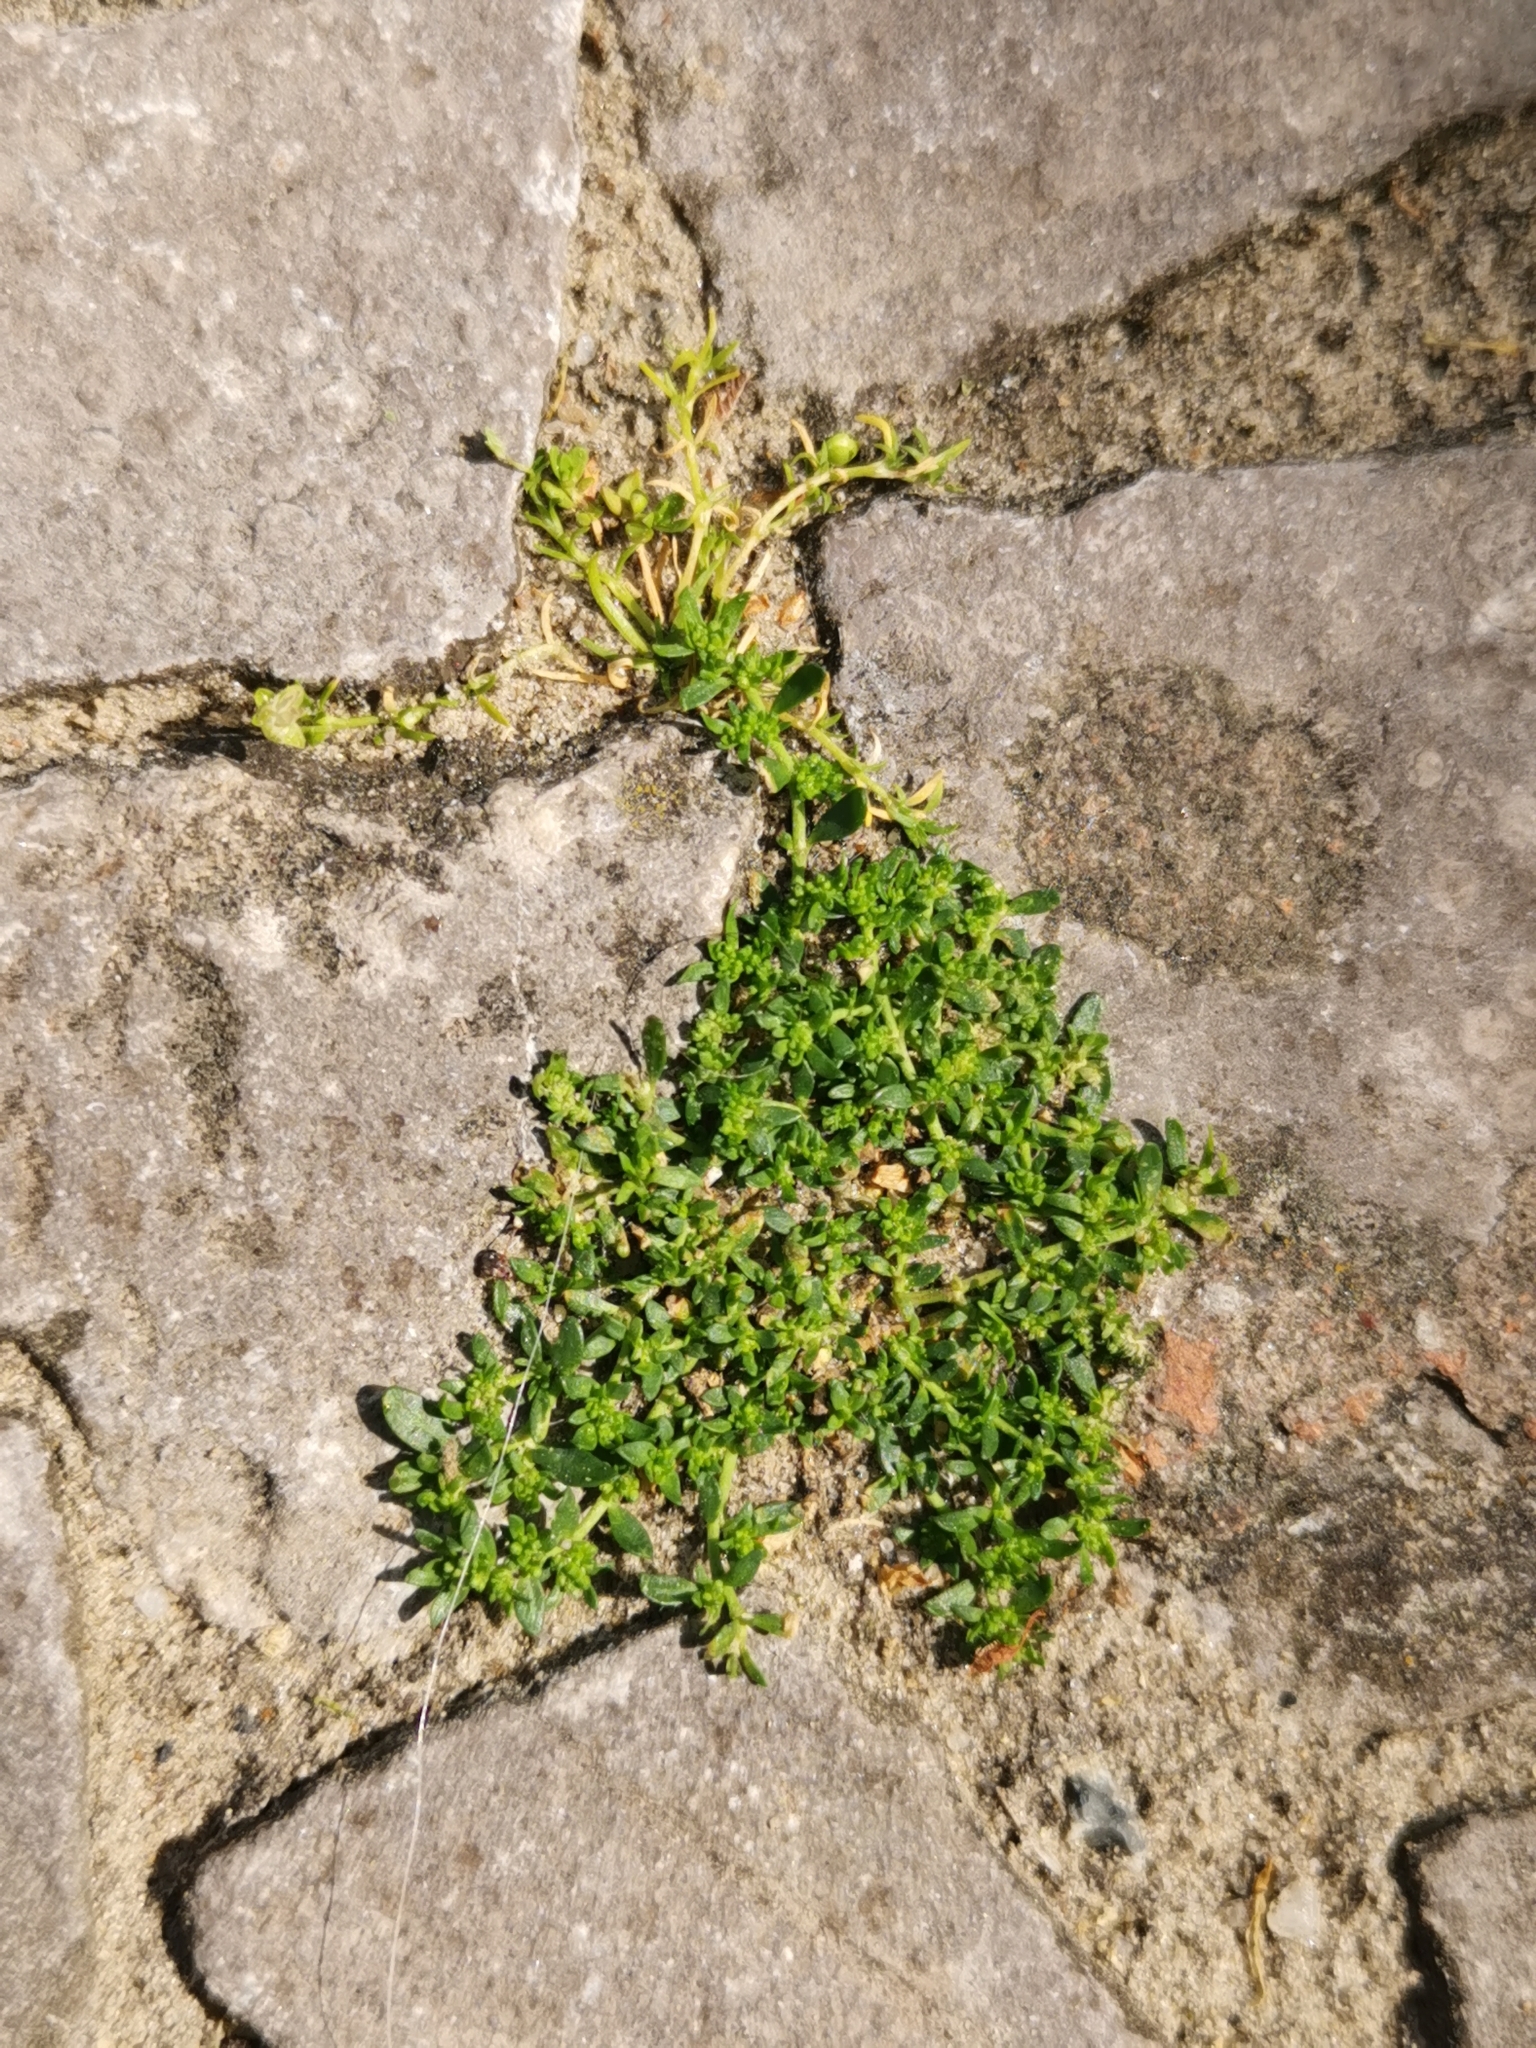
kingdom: Plantae
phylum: Tracheophyta
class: Magnoliopsida
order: Caryophyllales
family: Caryophyllaceae
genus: Herniaria
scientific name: Herniaria glabra
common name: Smooth rupturewort
